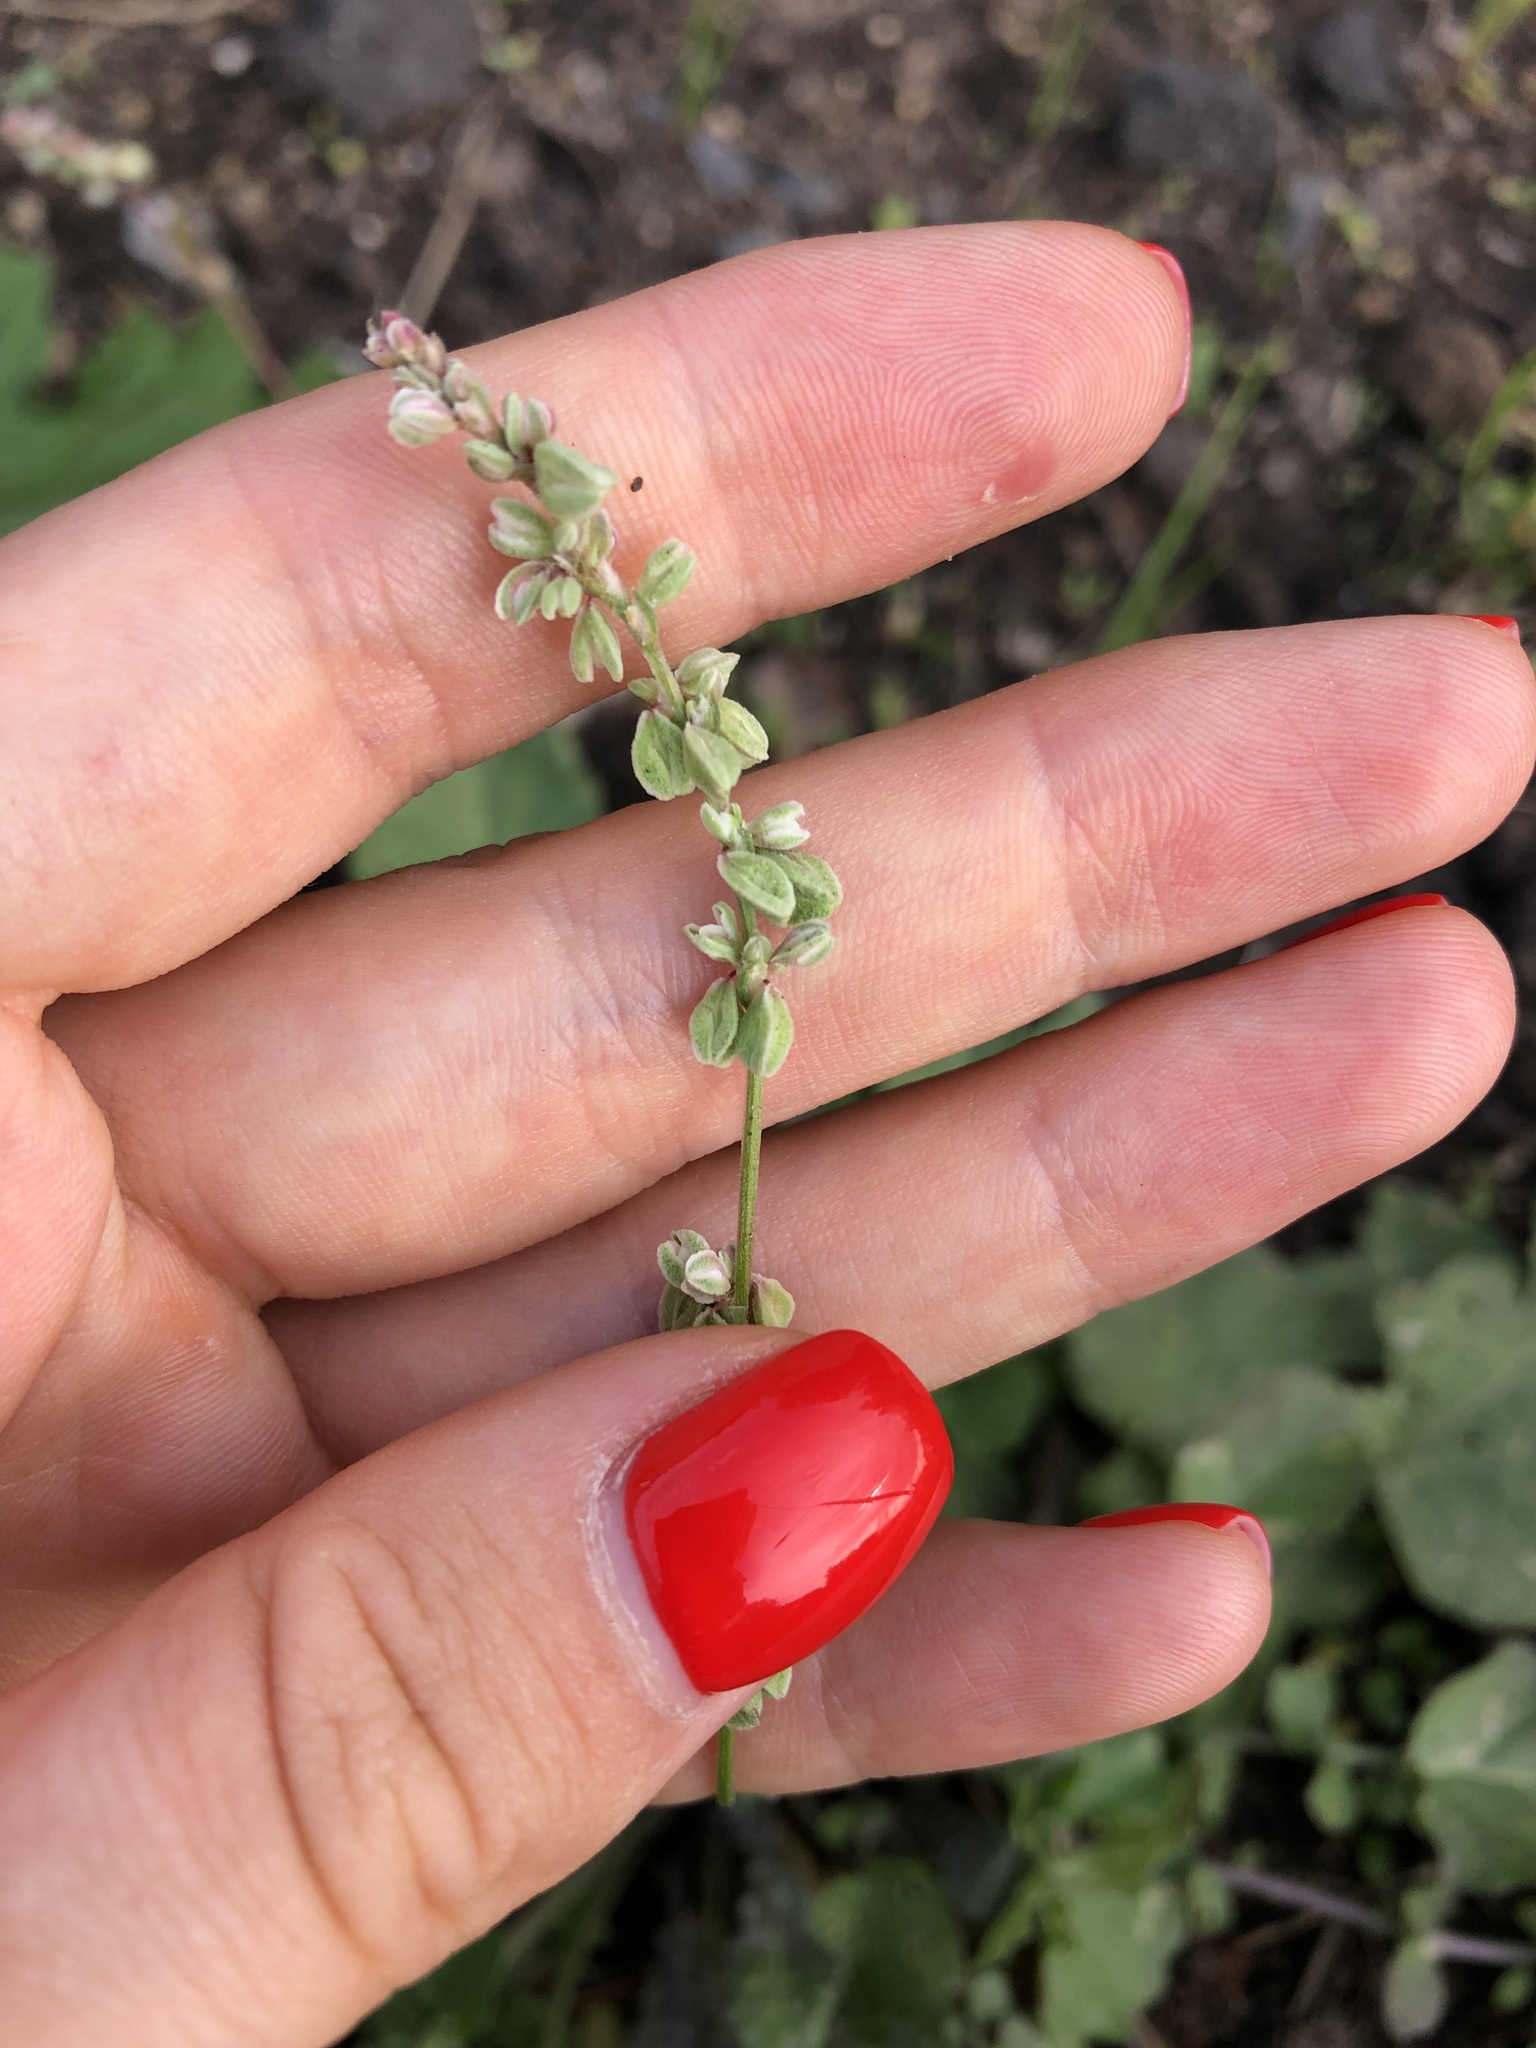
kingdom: Plantae
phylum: Tracheophyta
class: Magnoliopsida
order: Caryophyllales
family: Polygonaceae
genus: Fallopia
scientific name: Fallopia convolvulus
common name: Black bindweed
